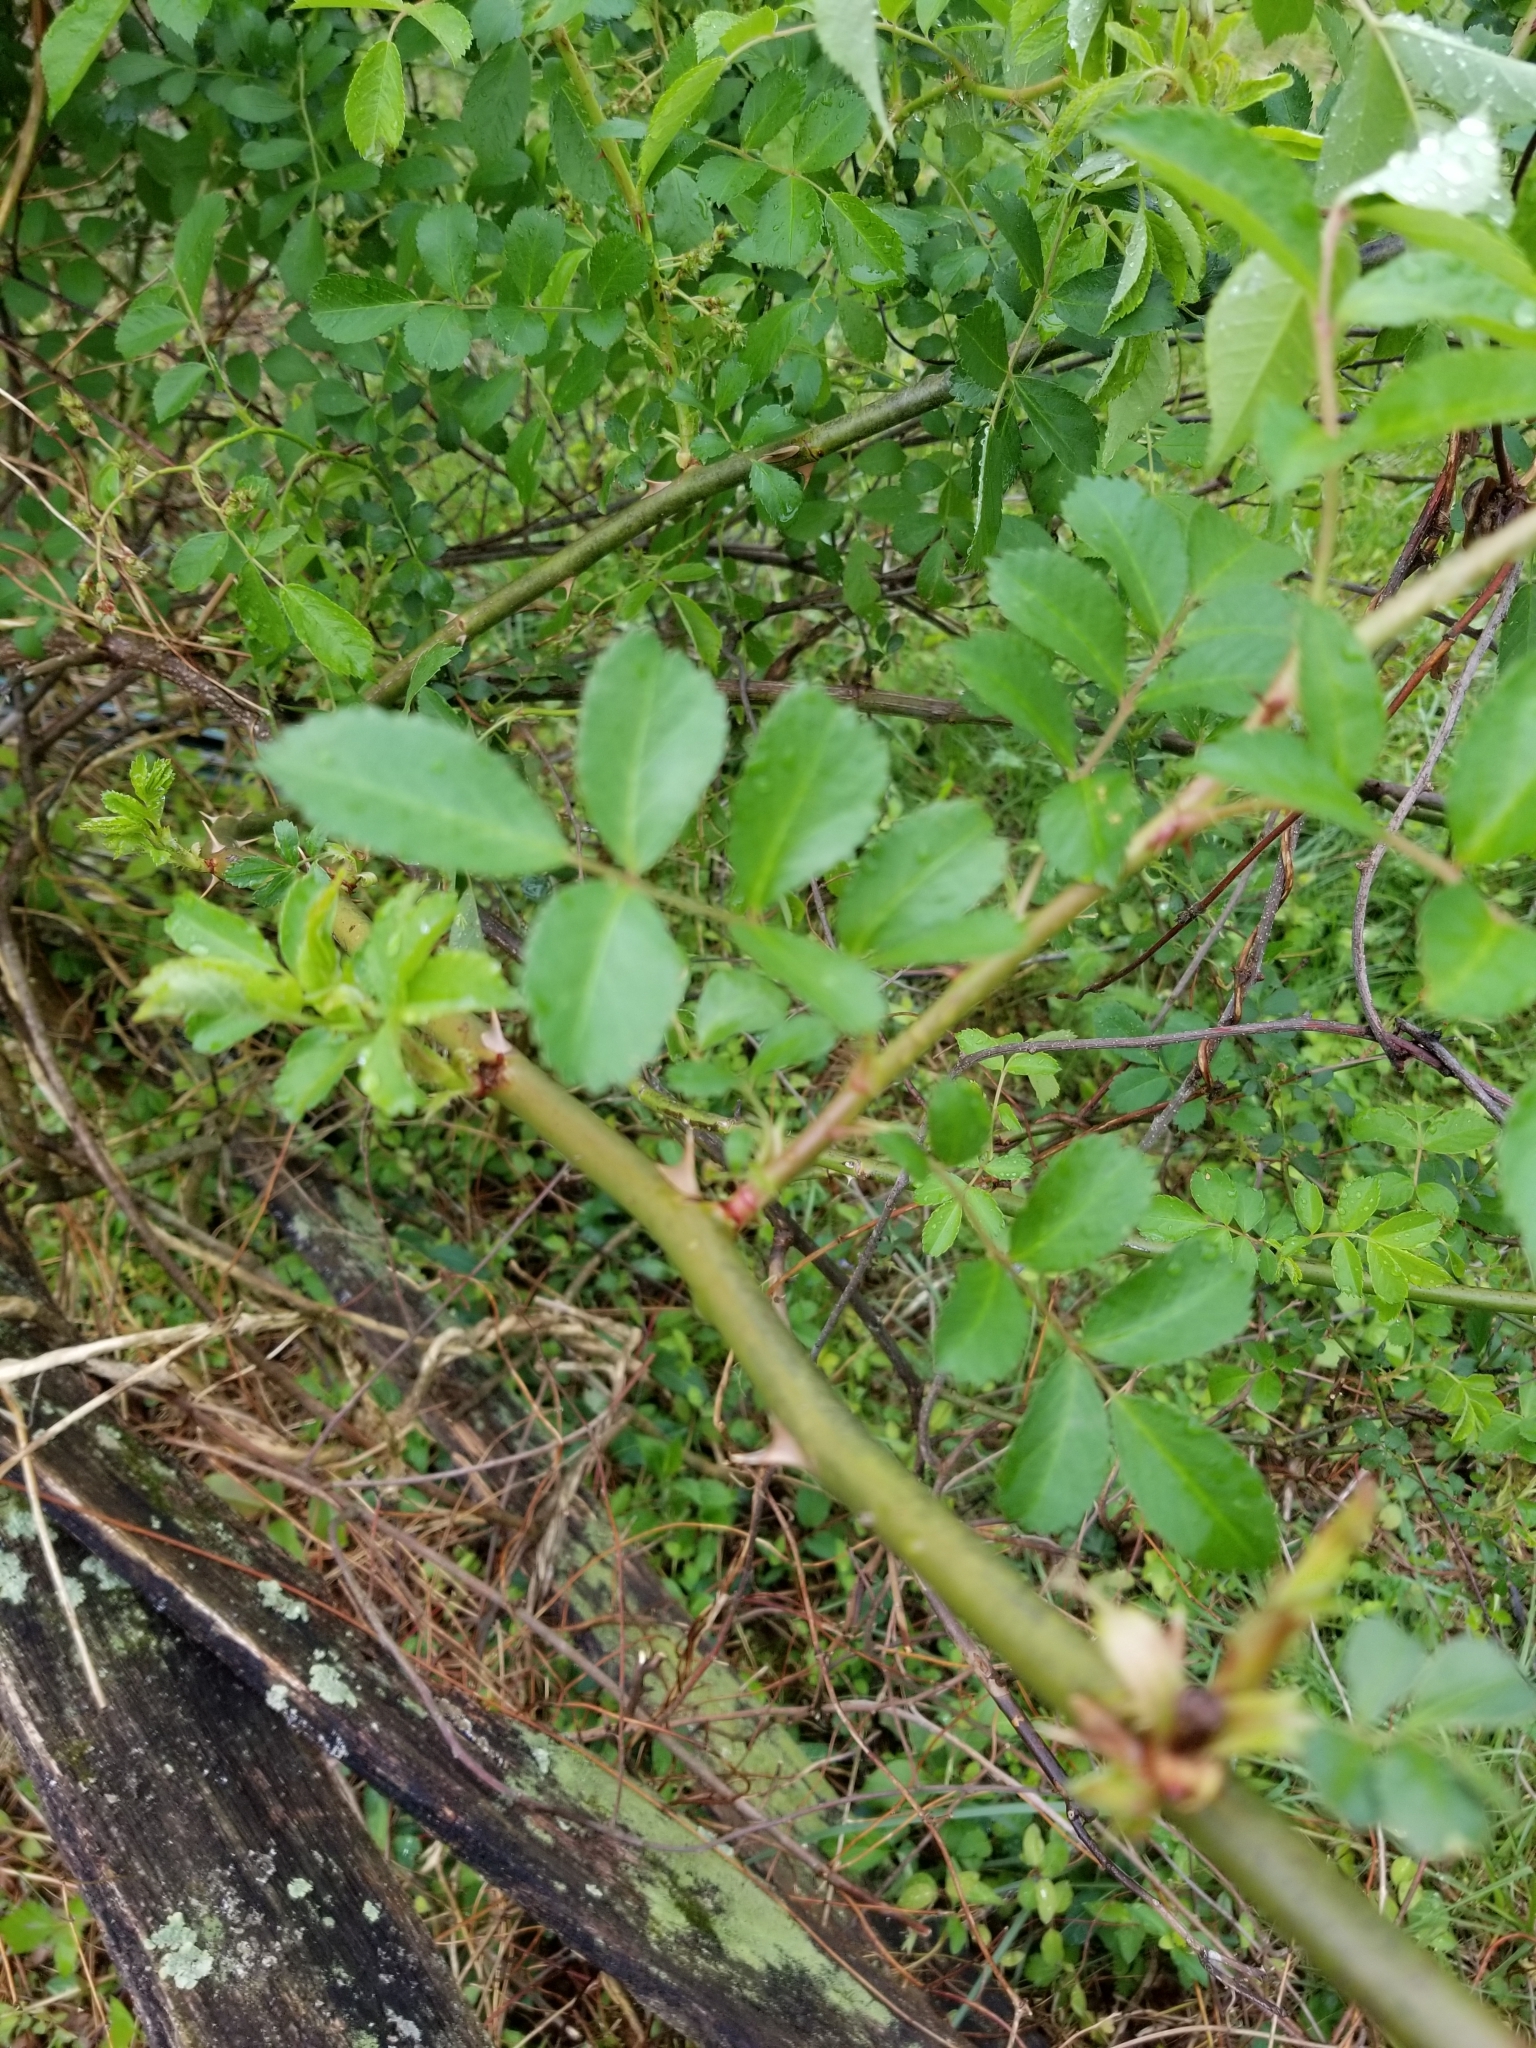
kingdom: Plantae
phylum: Tracheophyta
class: Magnoliopsida
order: Rosales
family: Rosaceae
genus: Rosa
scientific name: Rosa multiflora
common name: Multiflora rose
